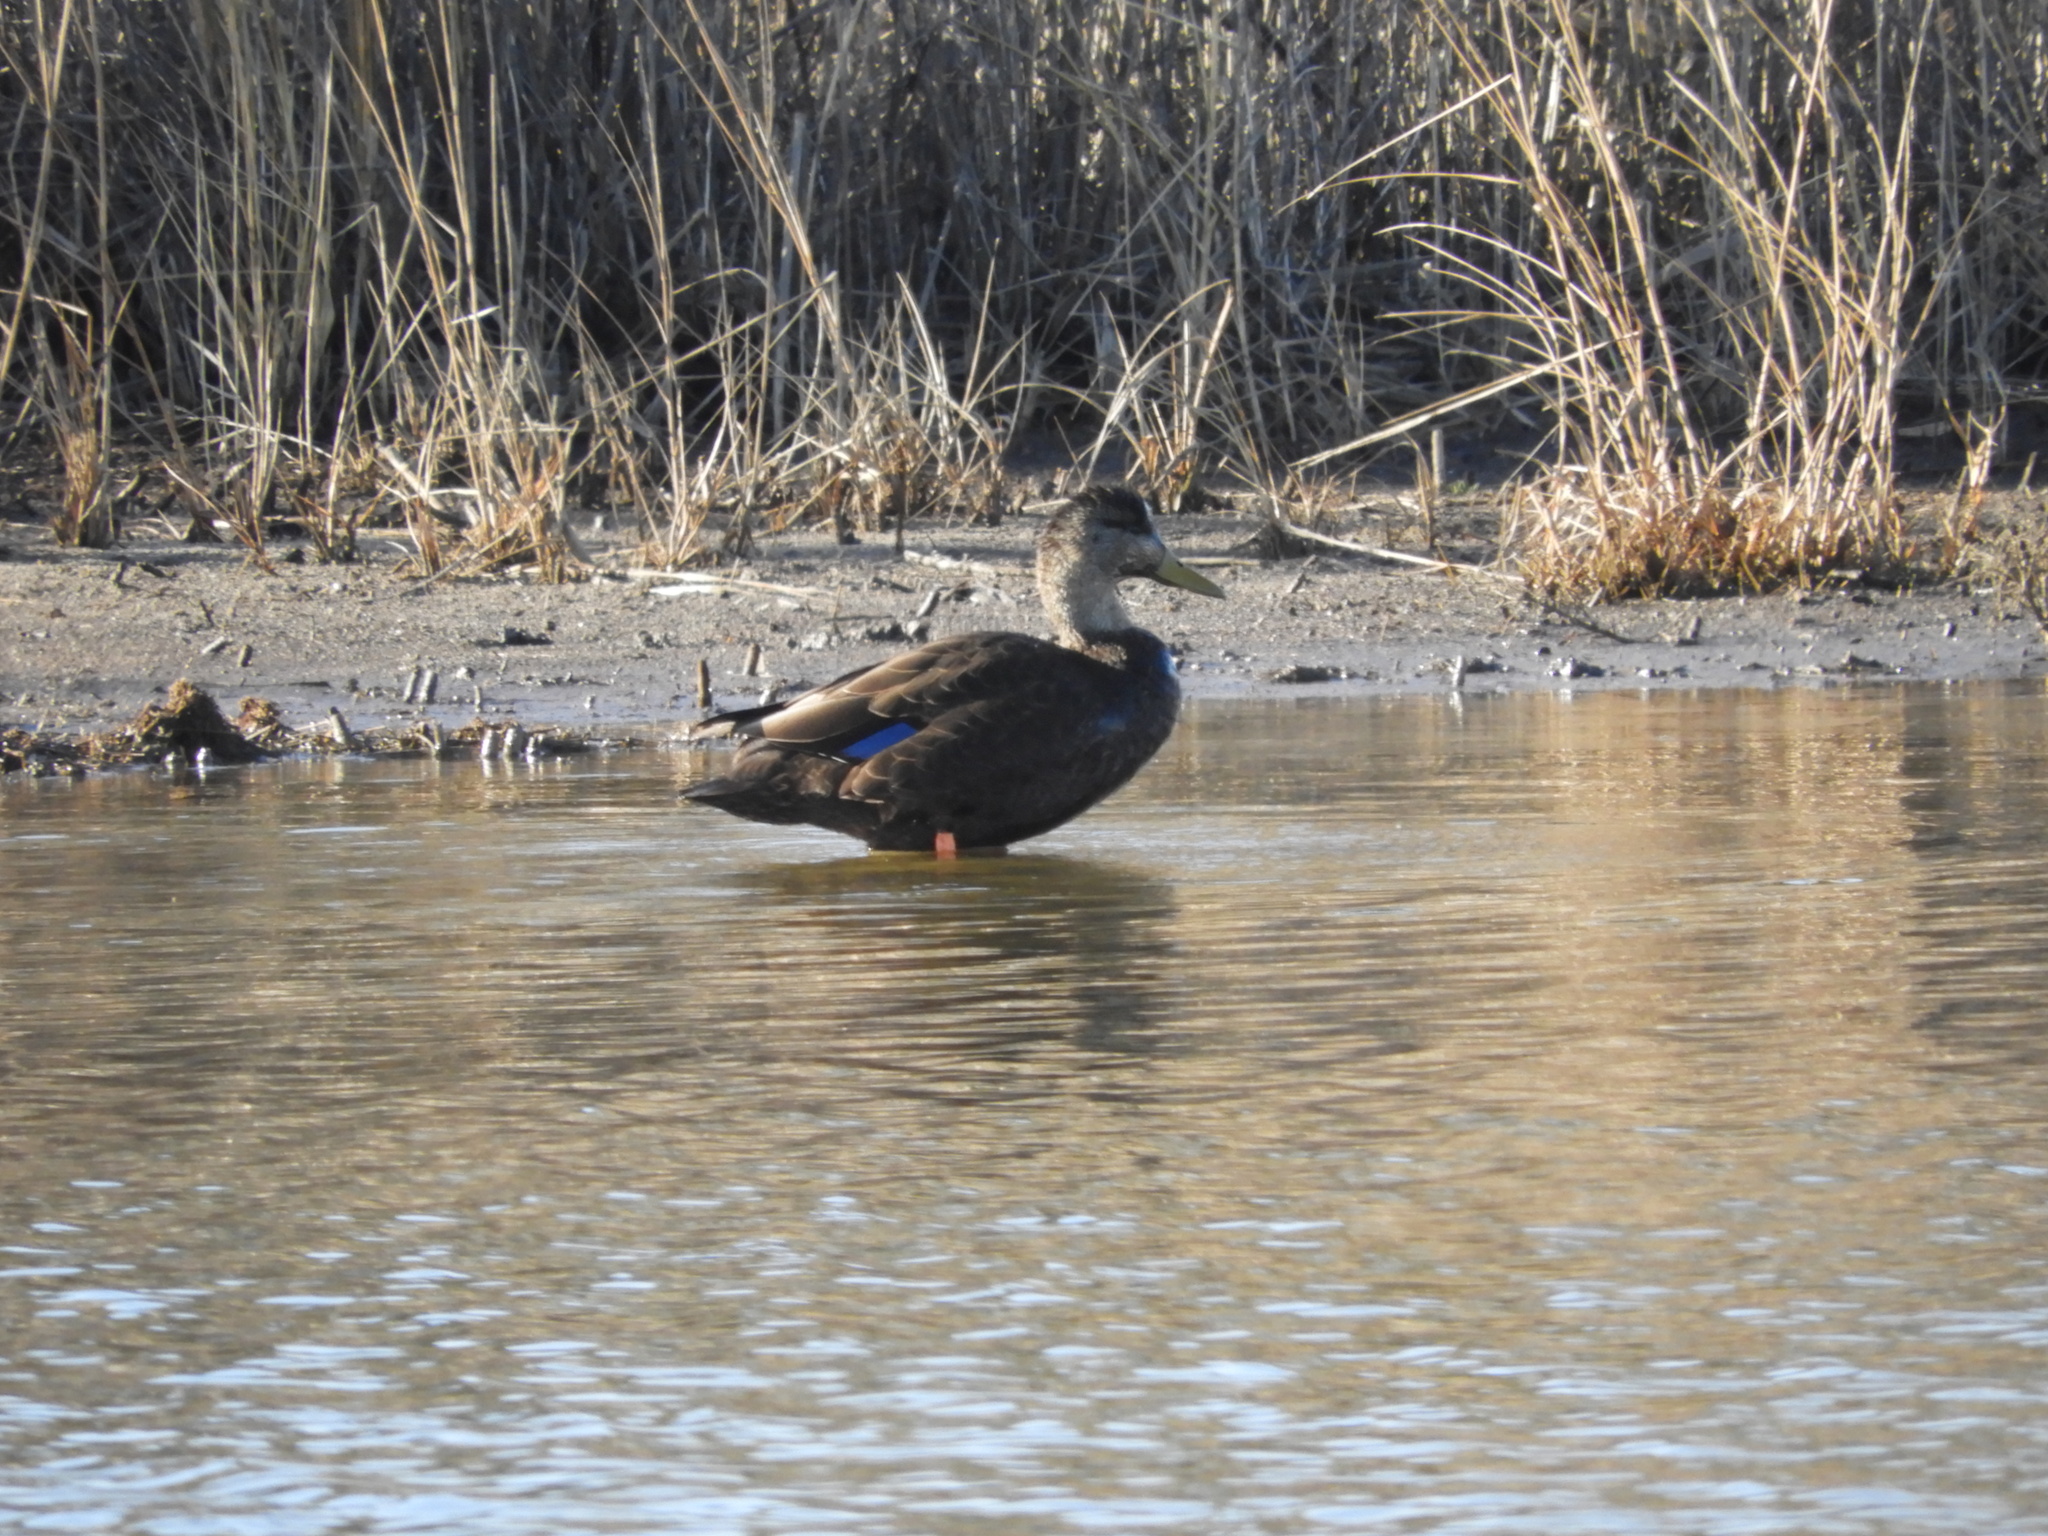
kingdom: Animalia
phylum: Chordata
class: Aves
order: Anseriformes
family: Anatidae
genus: Anas
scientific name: Anas rubripes
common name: American black duck
